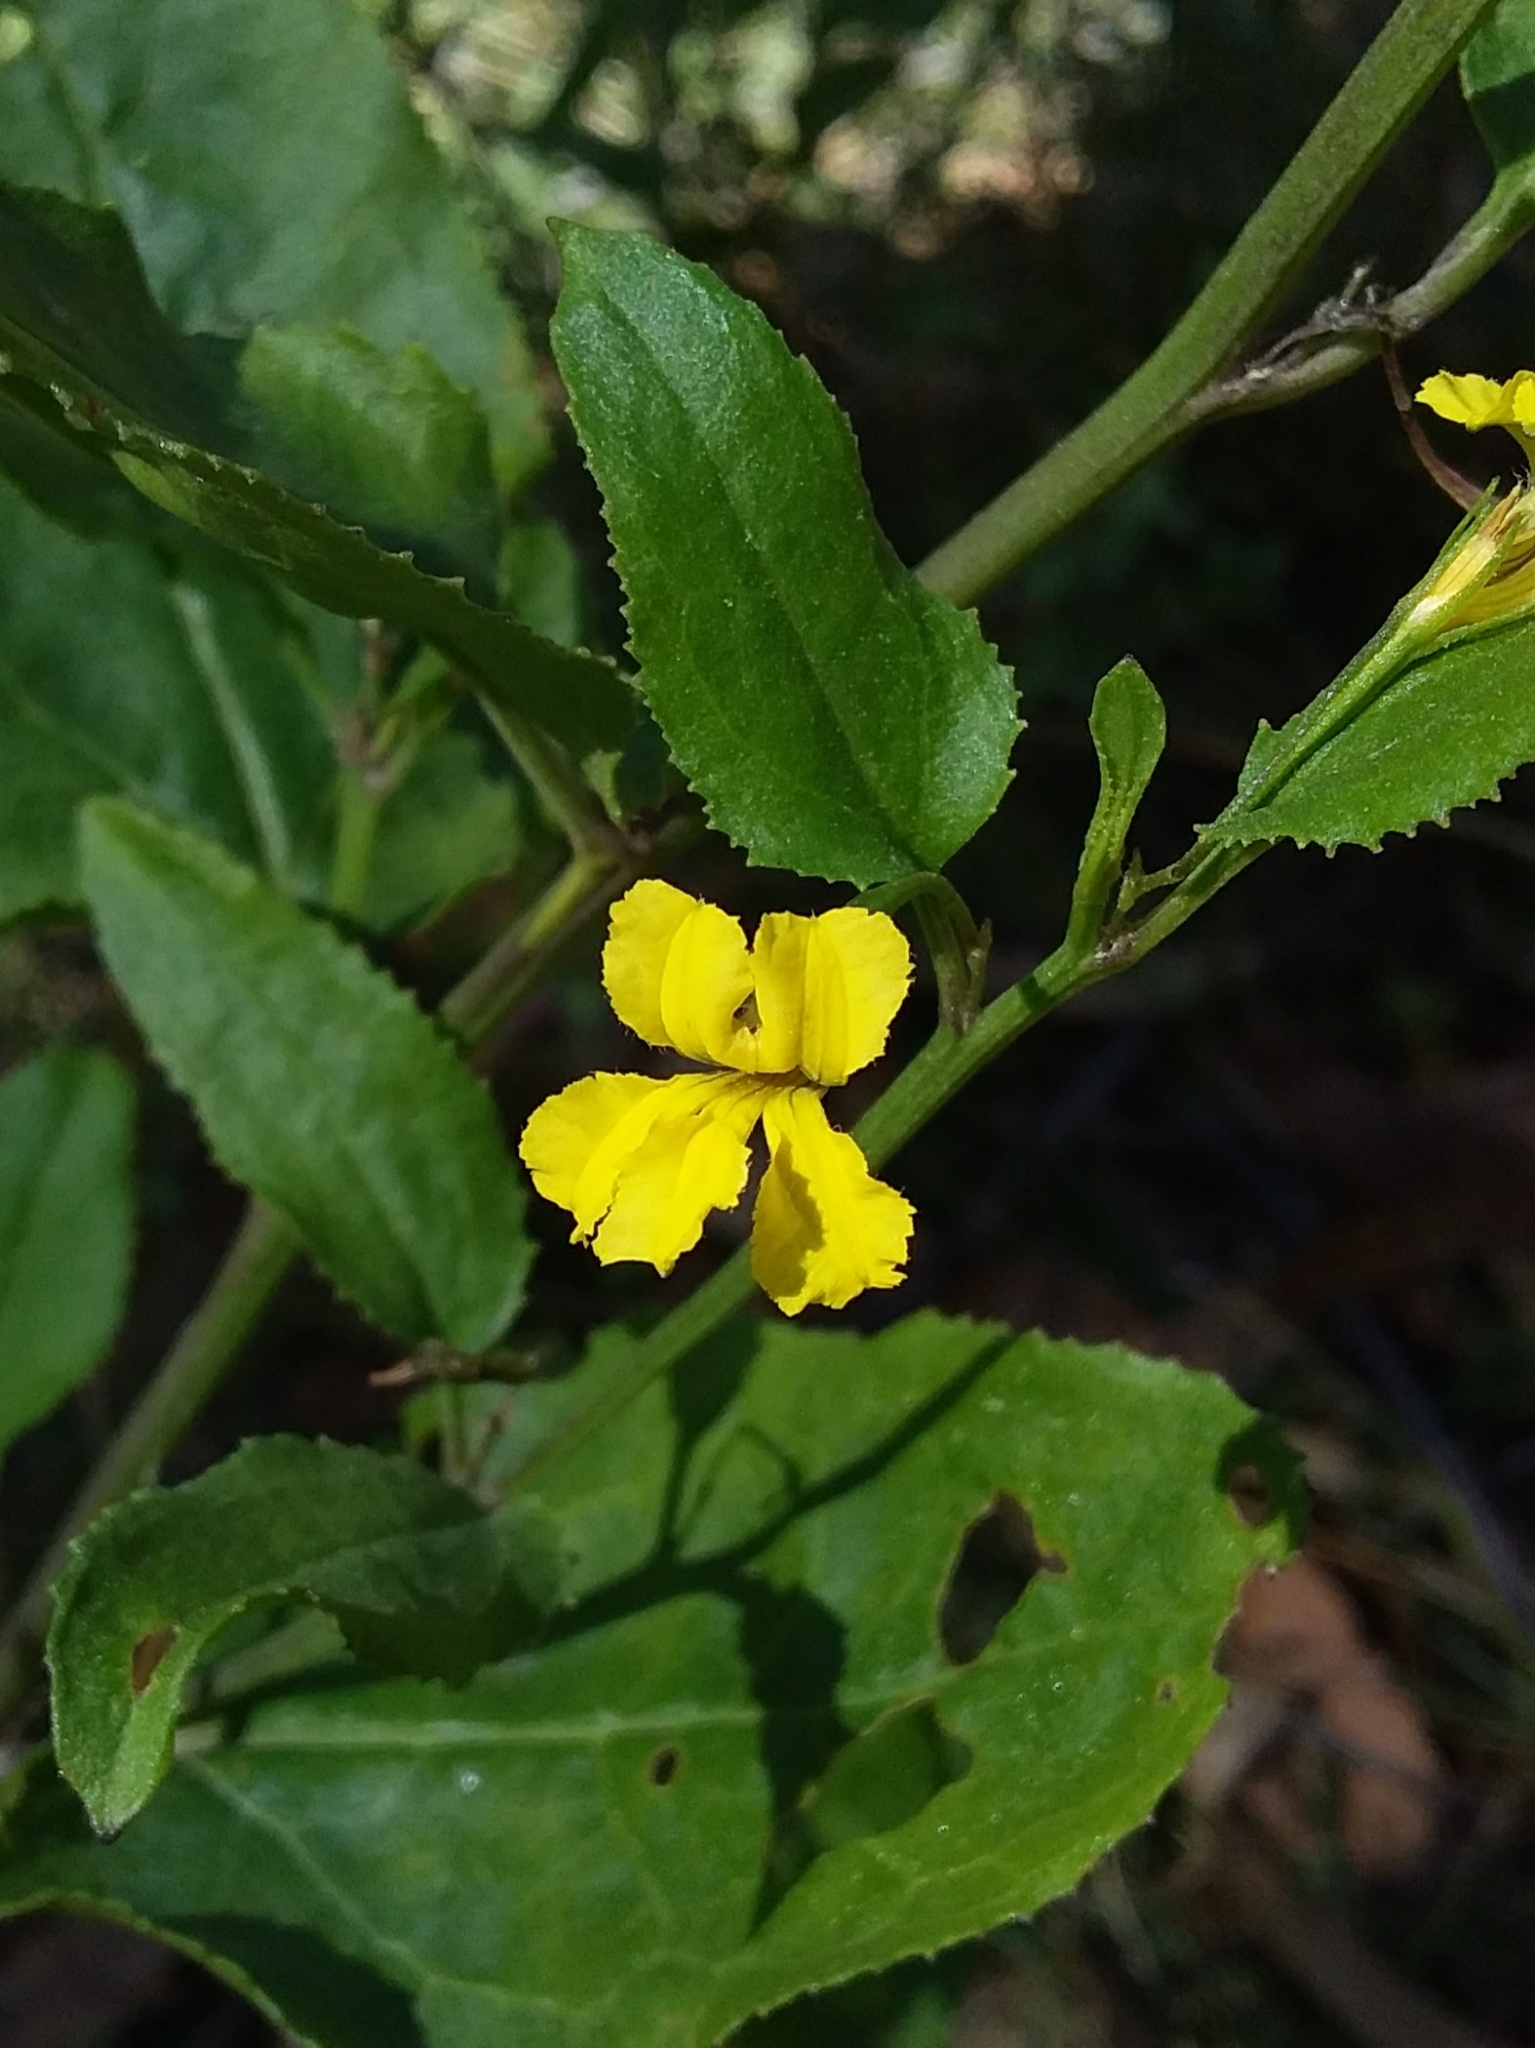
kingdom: Plantae
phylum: Tracheophyta
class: Magnoliopsida
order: Asterales
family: Goodeniaceae
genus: Goodenia
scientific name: Goodenia ovata
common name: Hop goodenia
